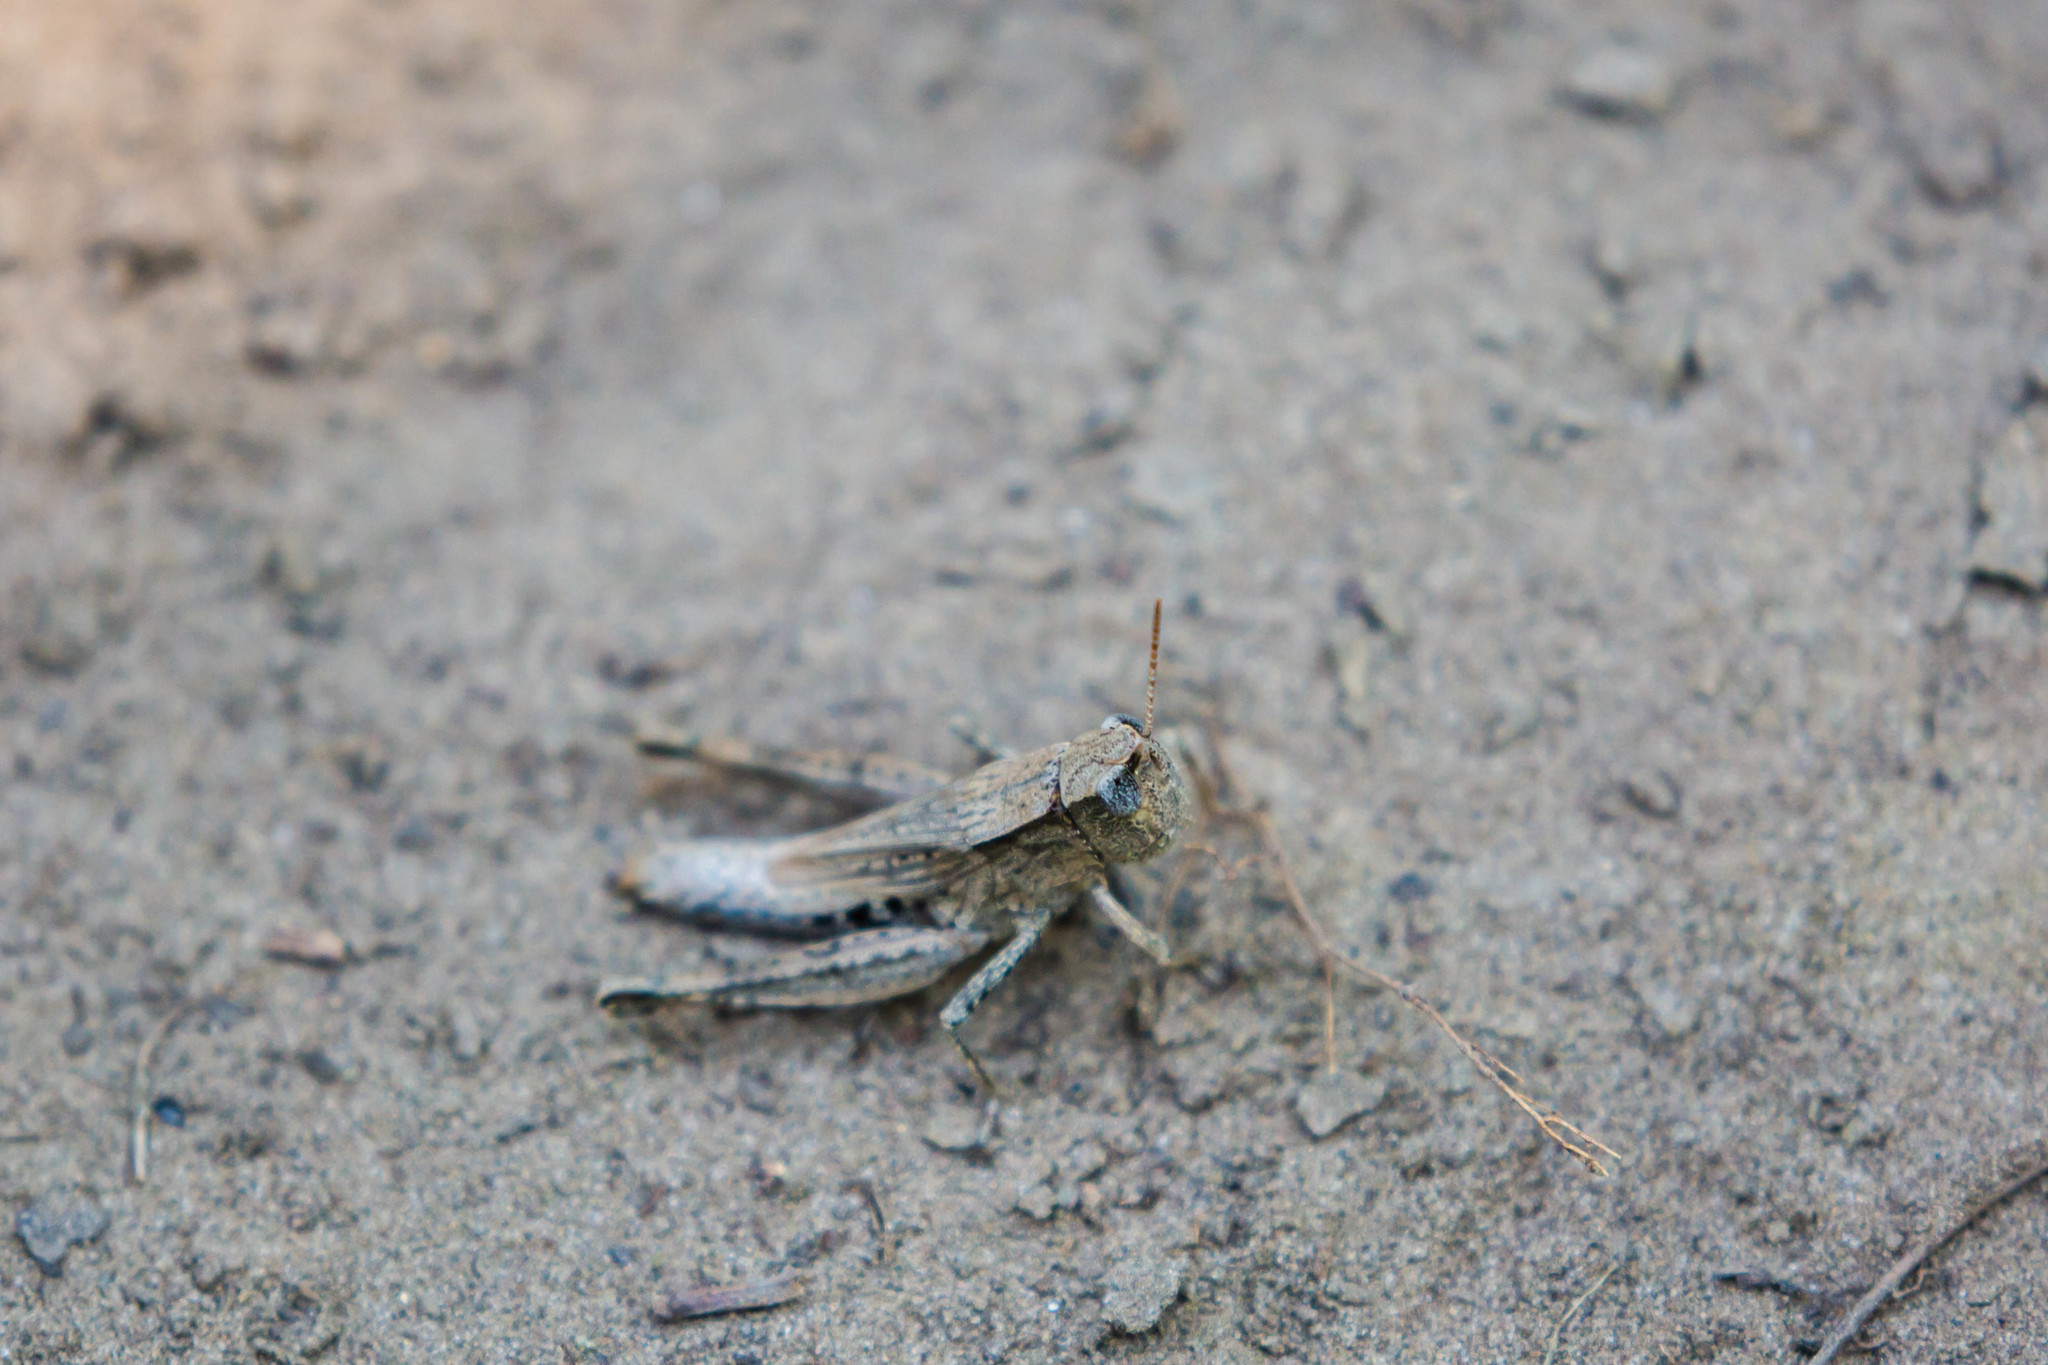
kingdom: Animalia
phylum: Arthropoda
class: Insecta
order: Orthoptera
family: Acrididae
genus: Dichromorpha
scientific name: Dichromorpha viridis
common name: Short-winged green grasshopper
